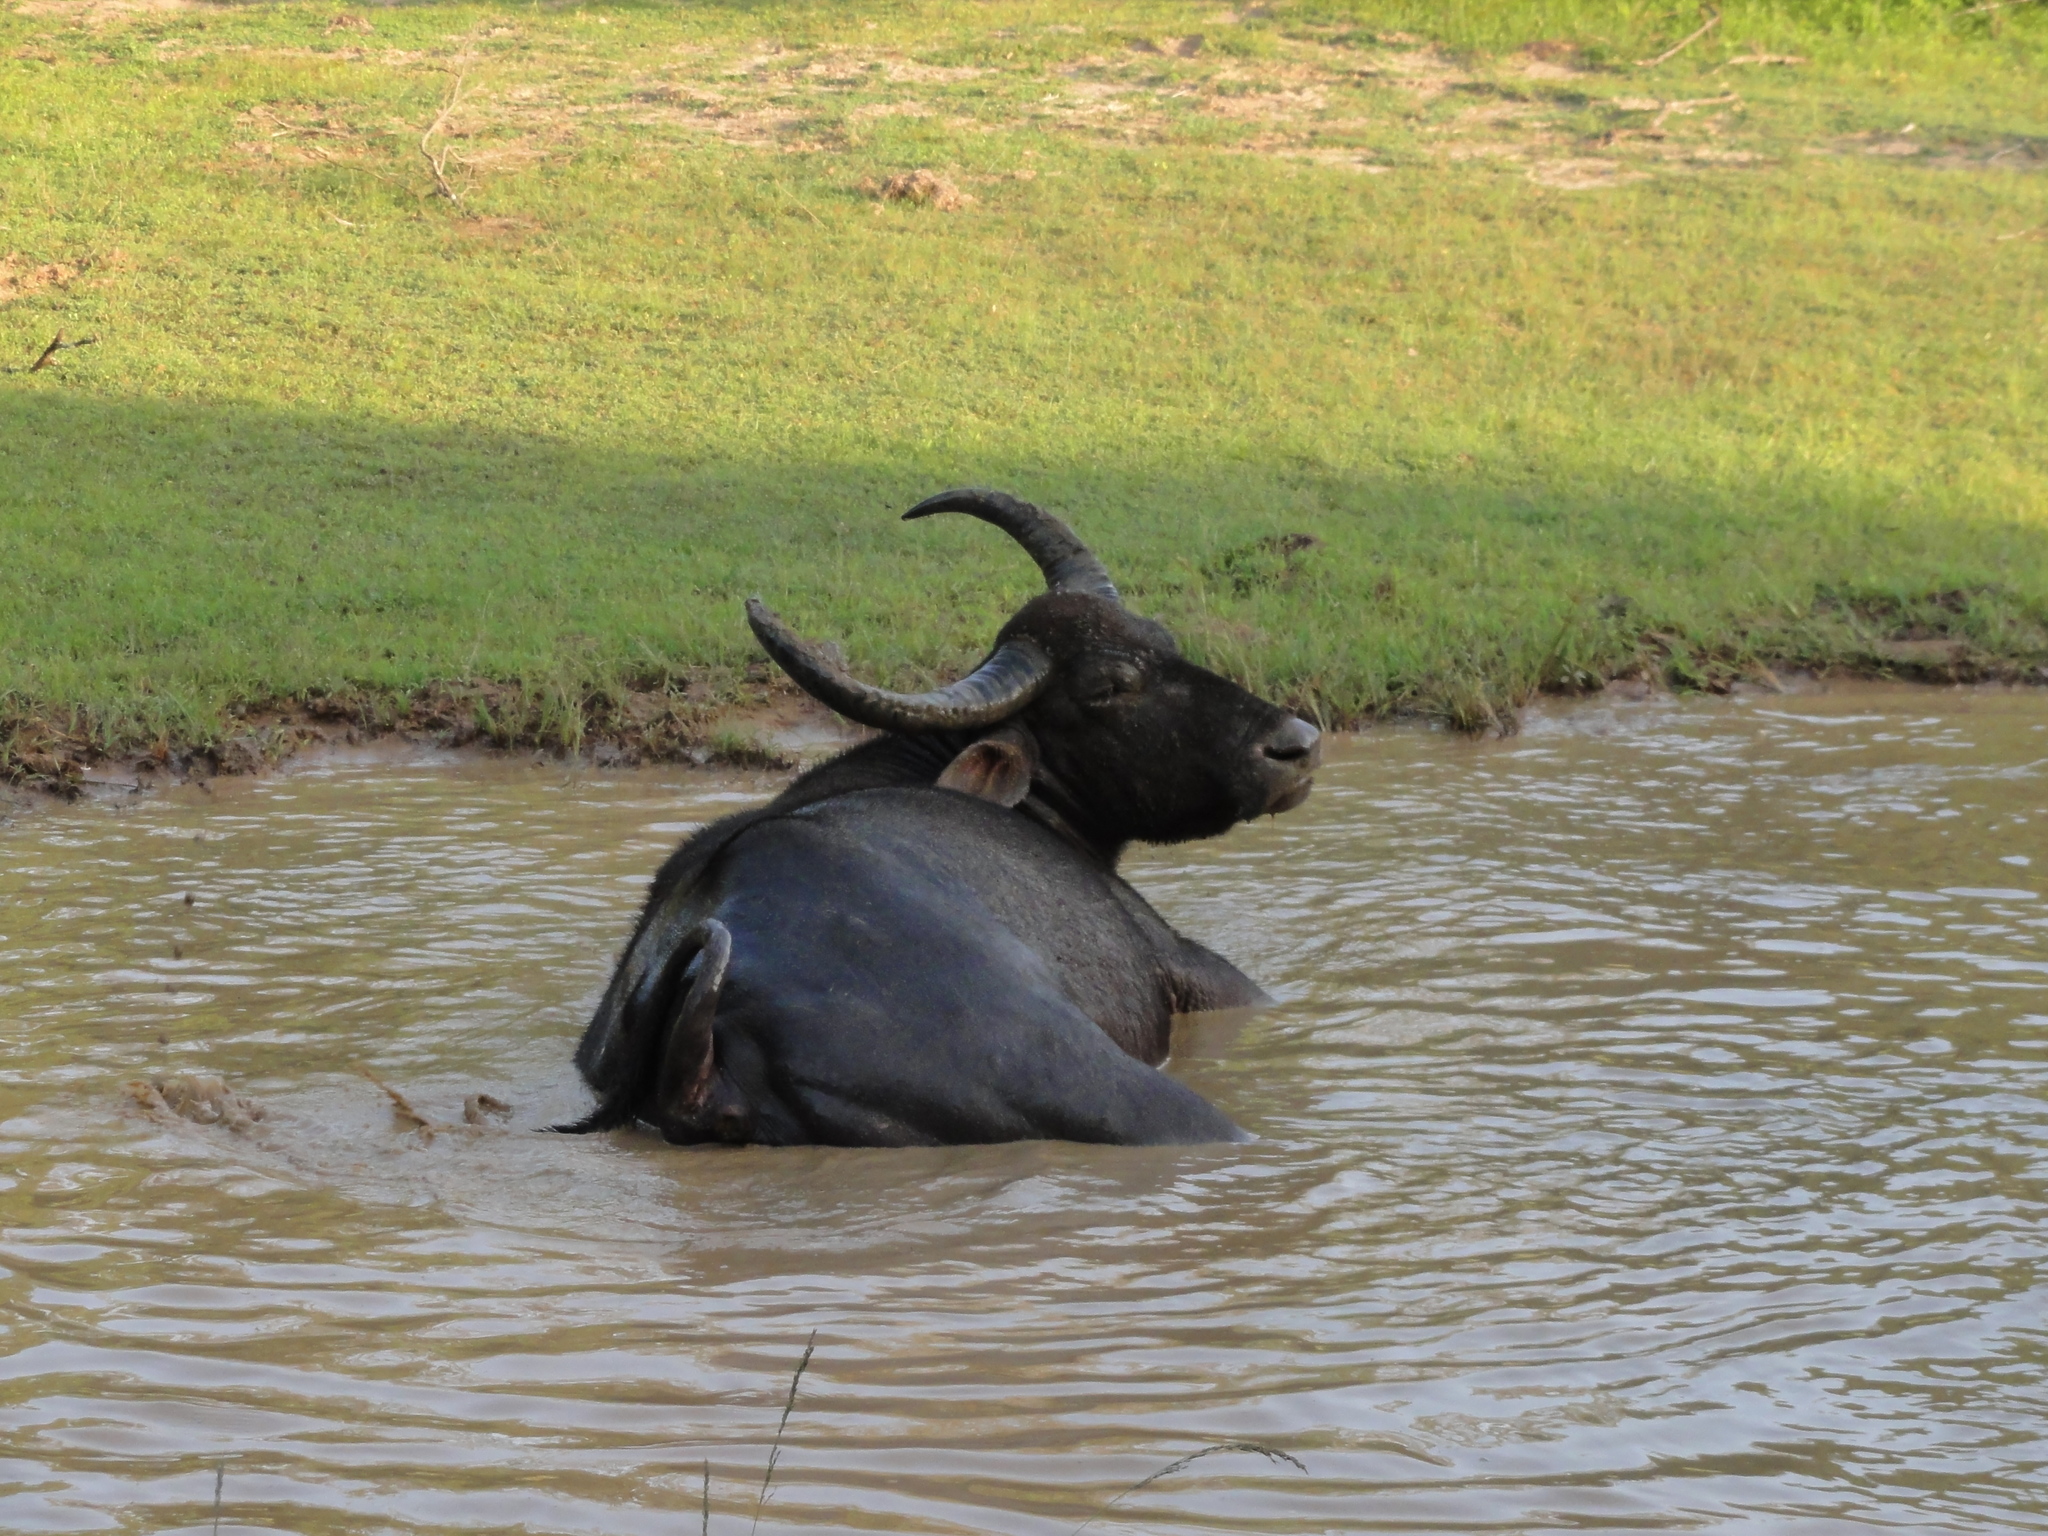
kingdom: Animalia
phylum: Chordata
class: Mammalia
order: Artiodactyla
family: Bovidae
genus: Bubalus
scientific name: Bubalus bubalis
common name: Water buffalo
